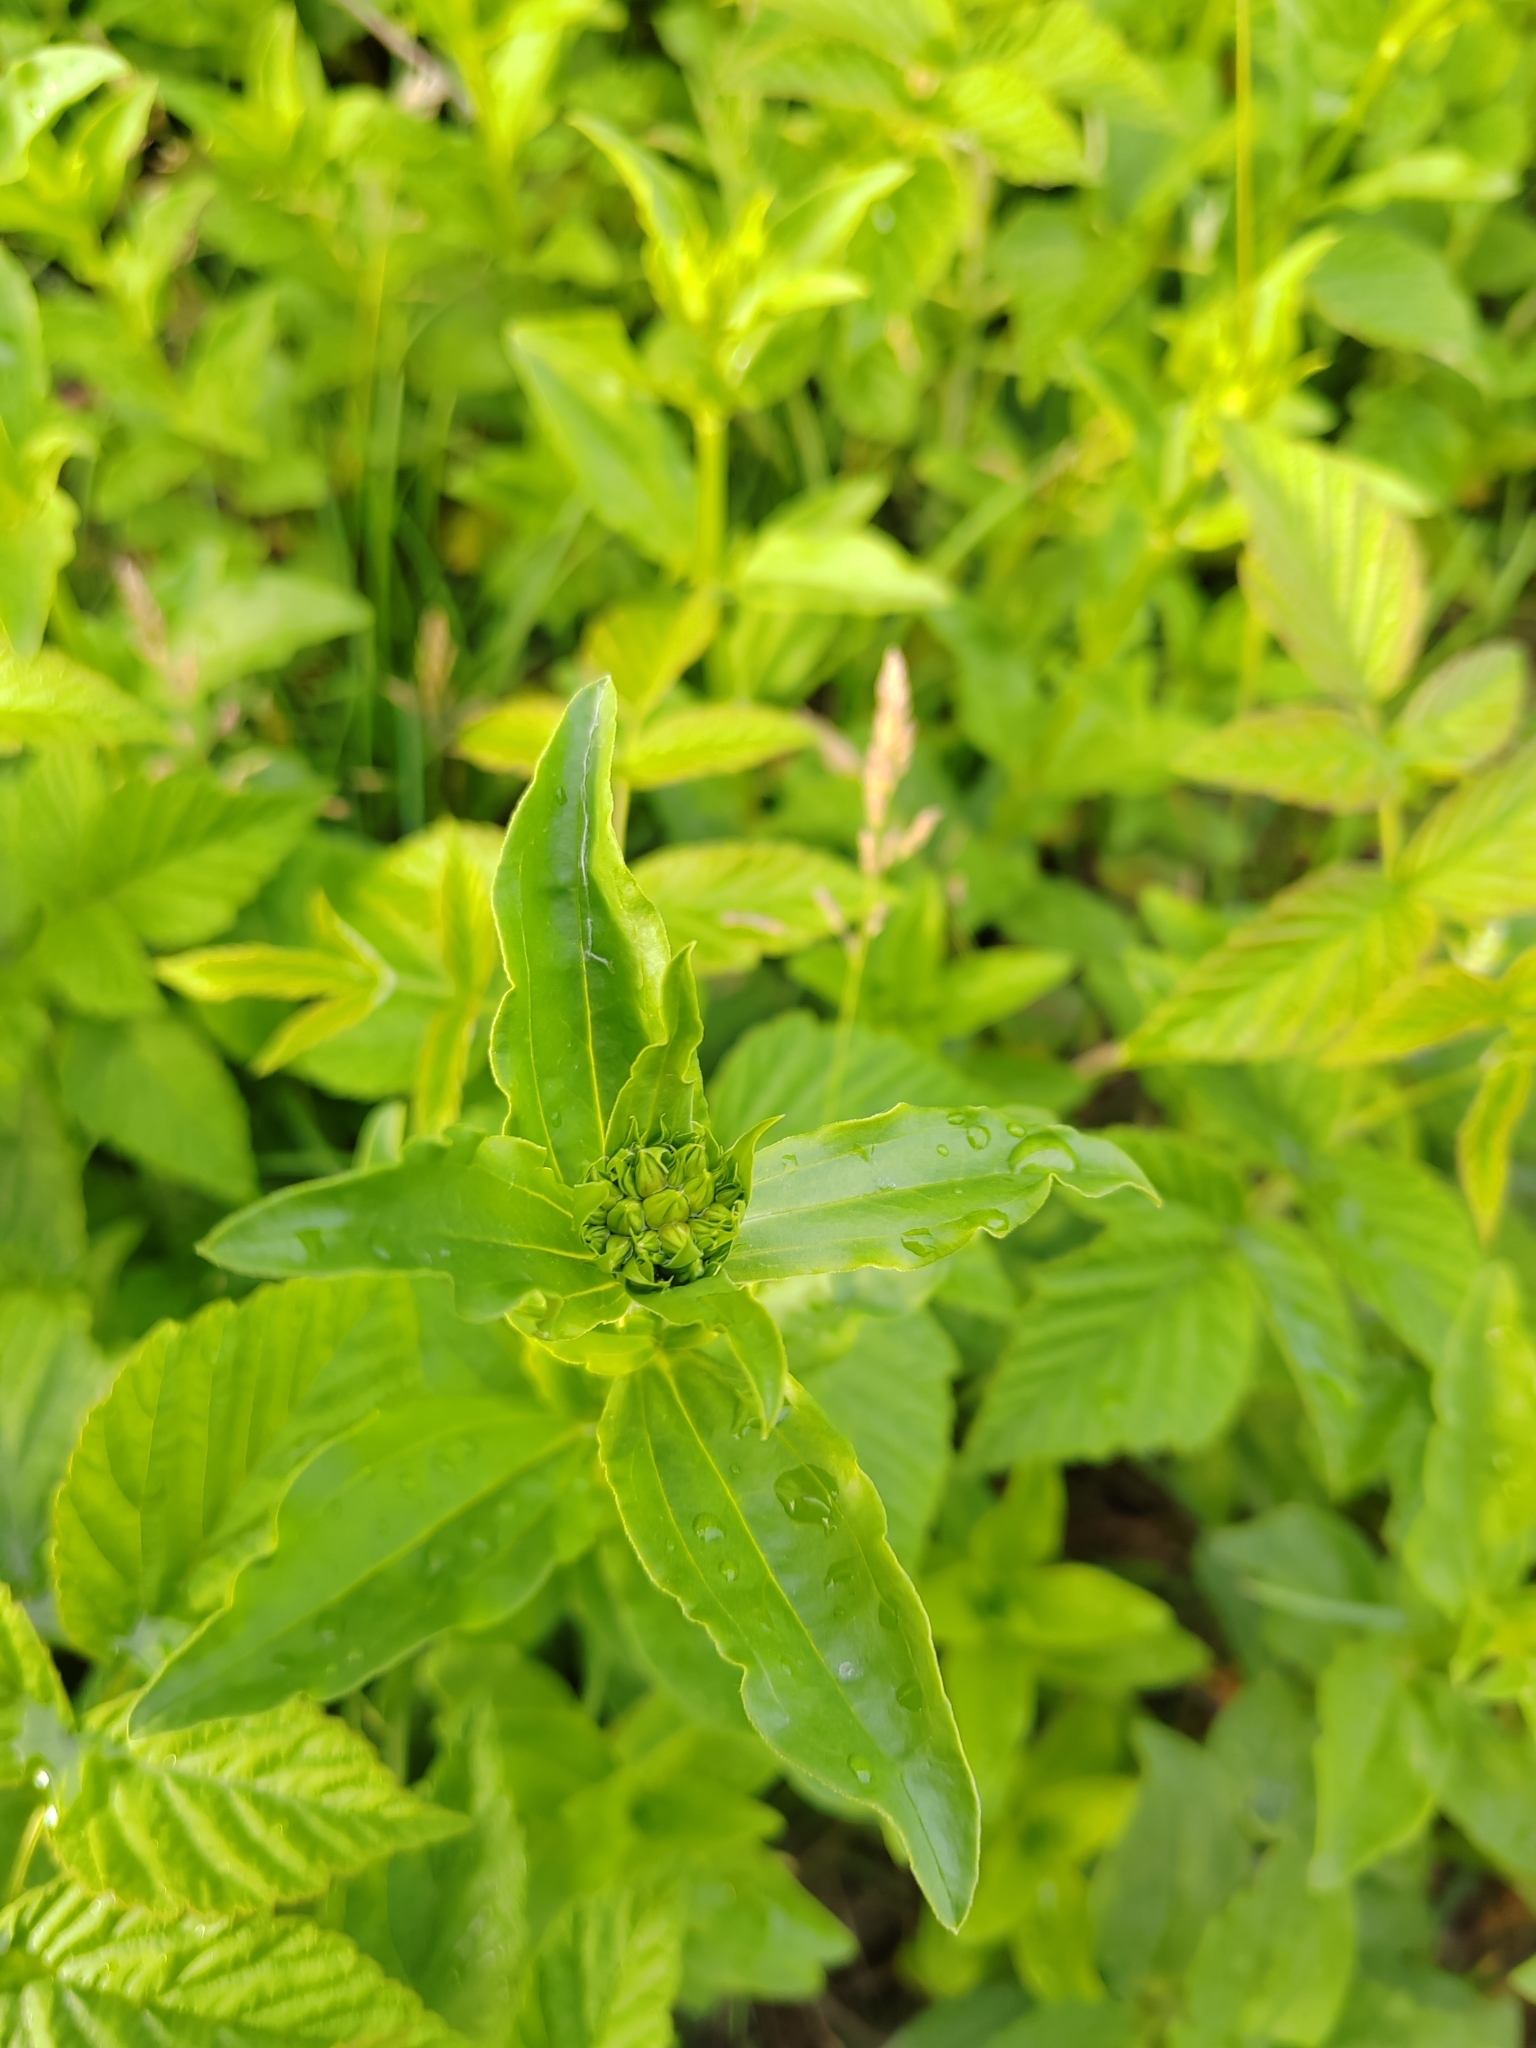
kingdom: Plantae
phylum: Tracheophyta
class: Magnoliopsida
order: Caryophyllales
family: Caryophyllaceae
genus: Saponaria
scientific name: Saponaria officinalis
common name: Soapwort
